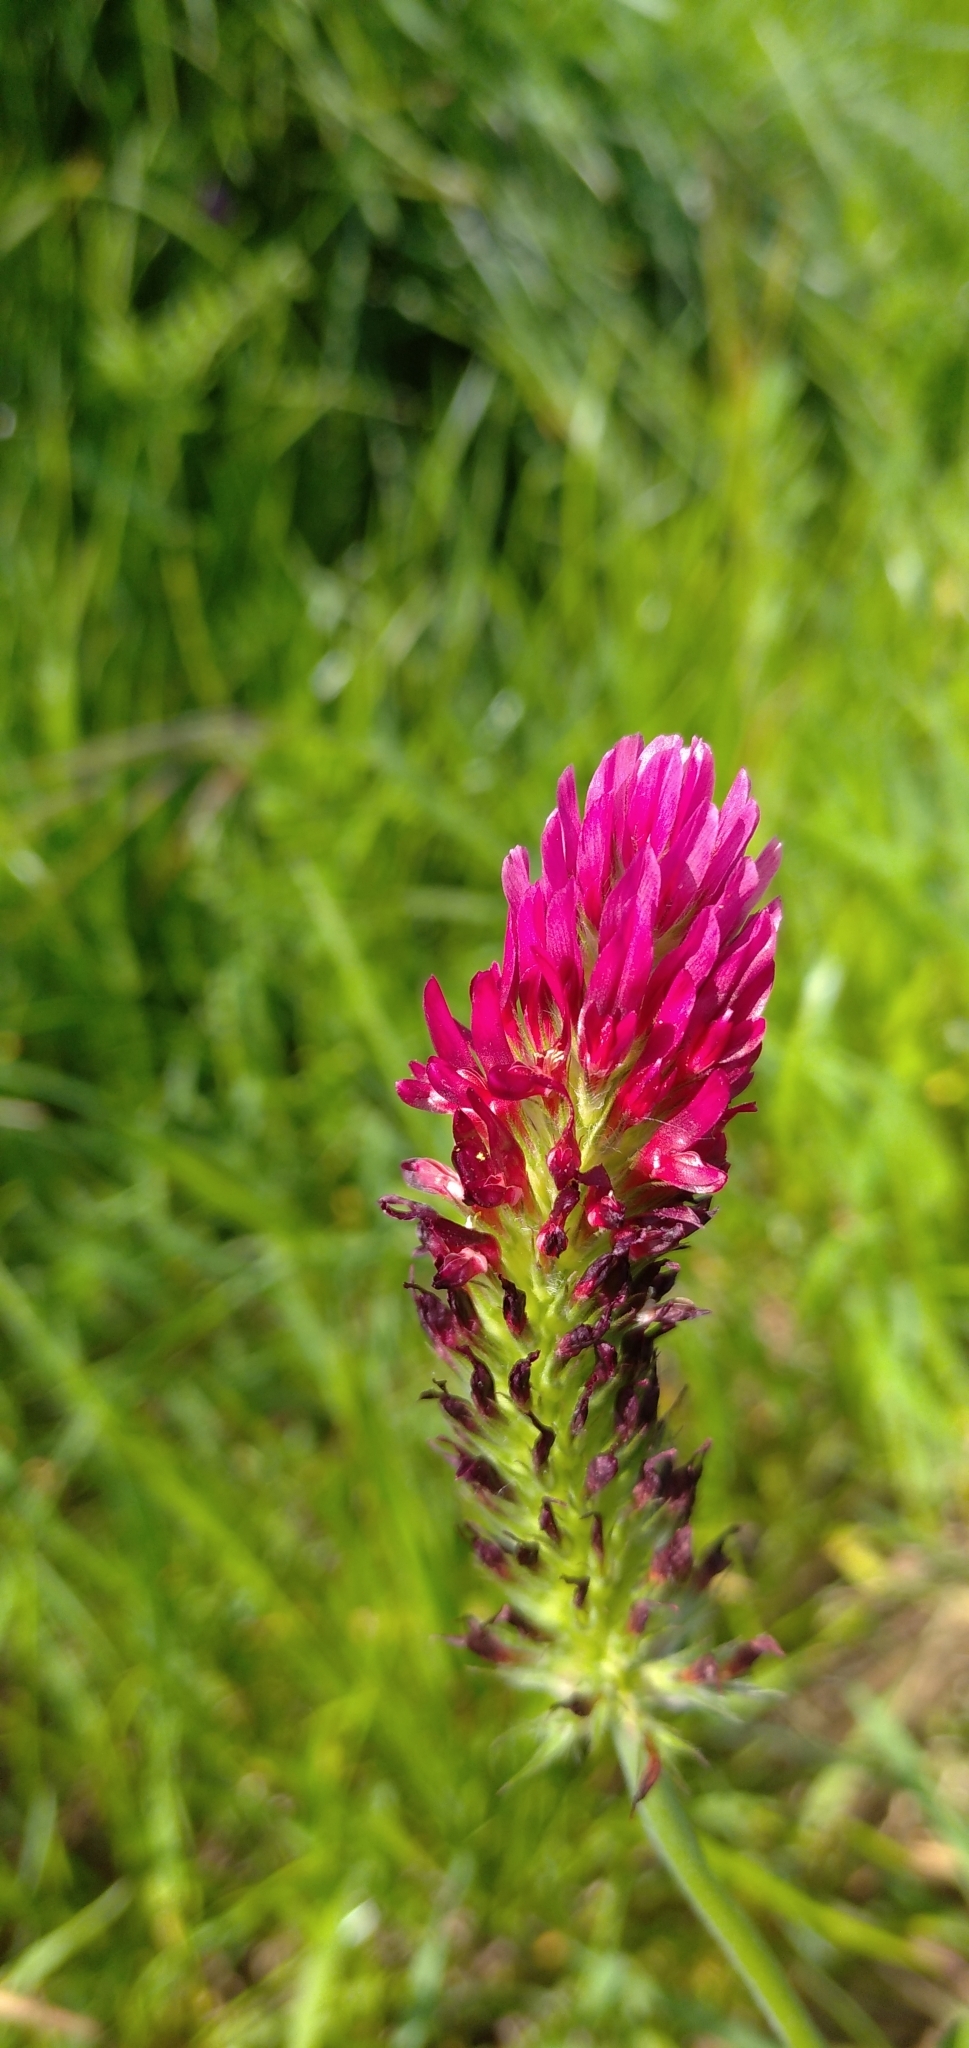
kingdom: Plantae
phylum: Tracheophyta
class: Magnoliopsida
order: Fabales
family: Fabaceae
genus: Trifolium
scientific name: Trifolium incarnatum
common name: Crimson clover
